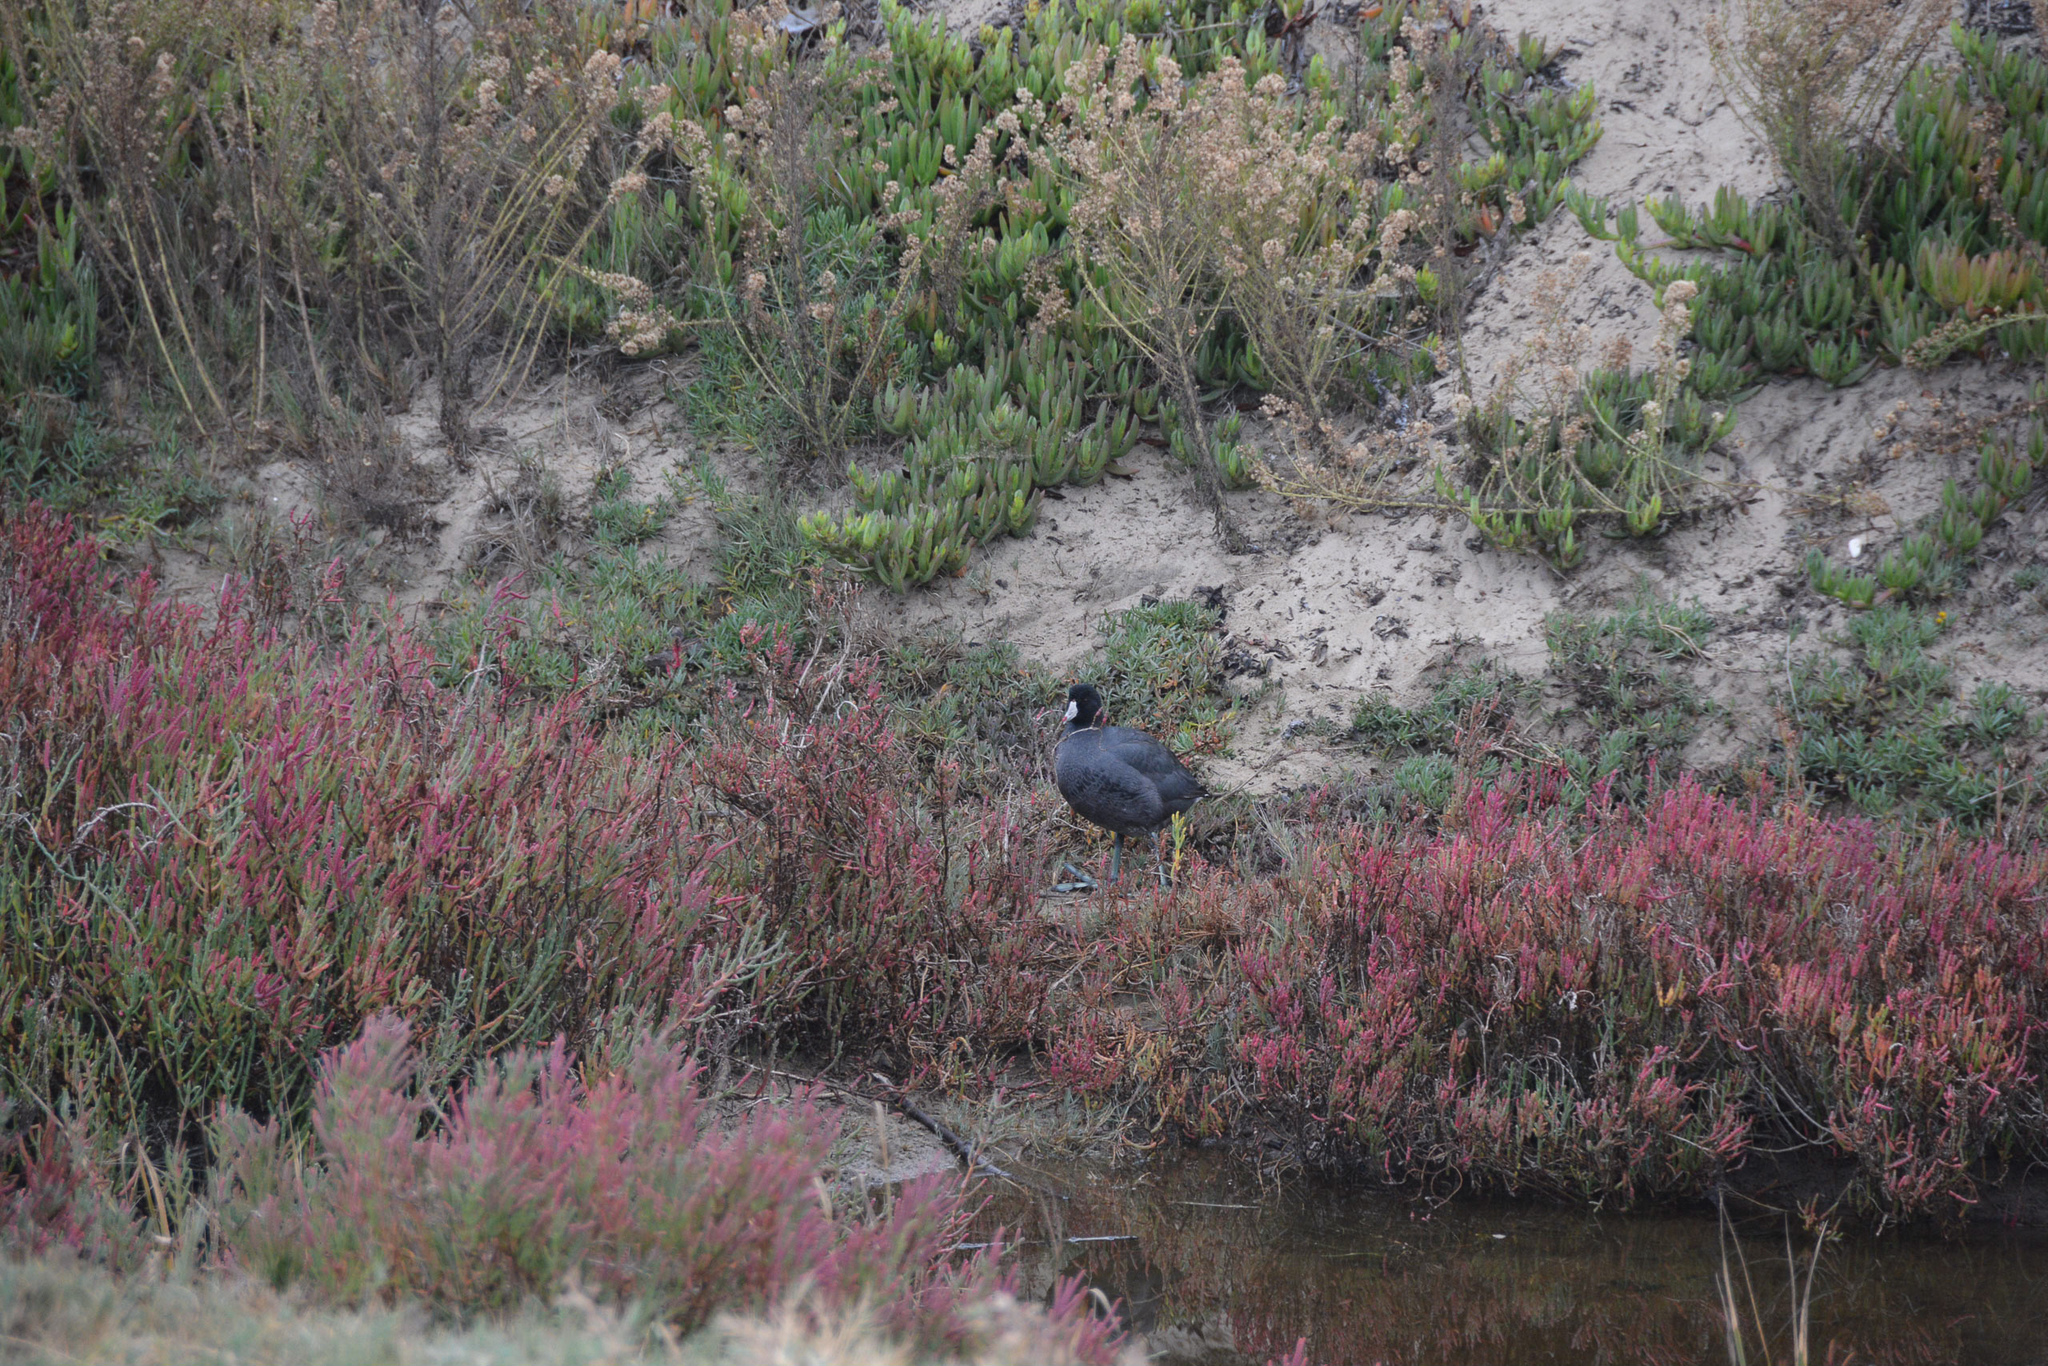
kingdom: Animalia
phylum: Chordata
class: Aves
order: Gruiformes
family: Rallidae
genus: Fulica
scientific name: Fulica americana
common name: American coot
